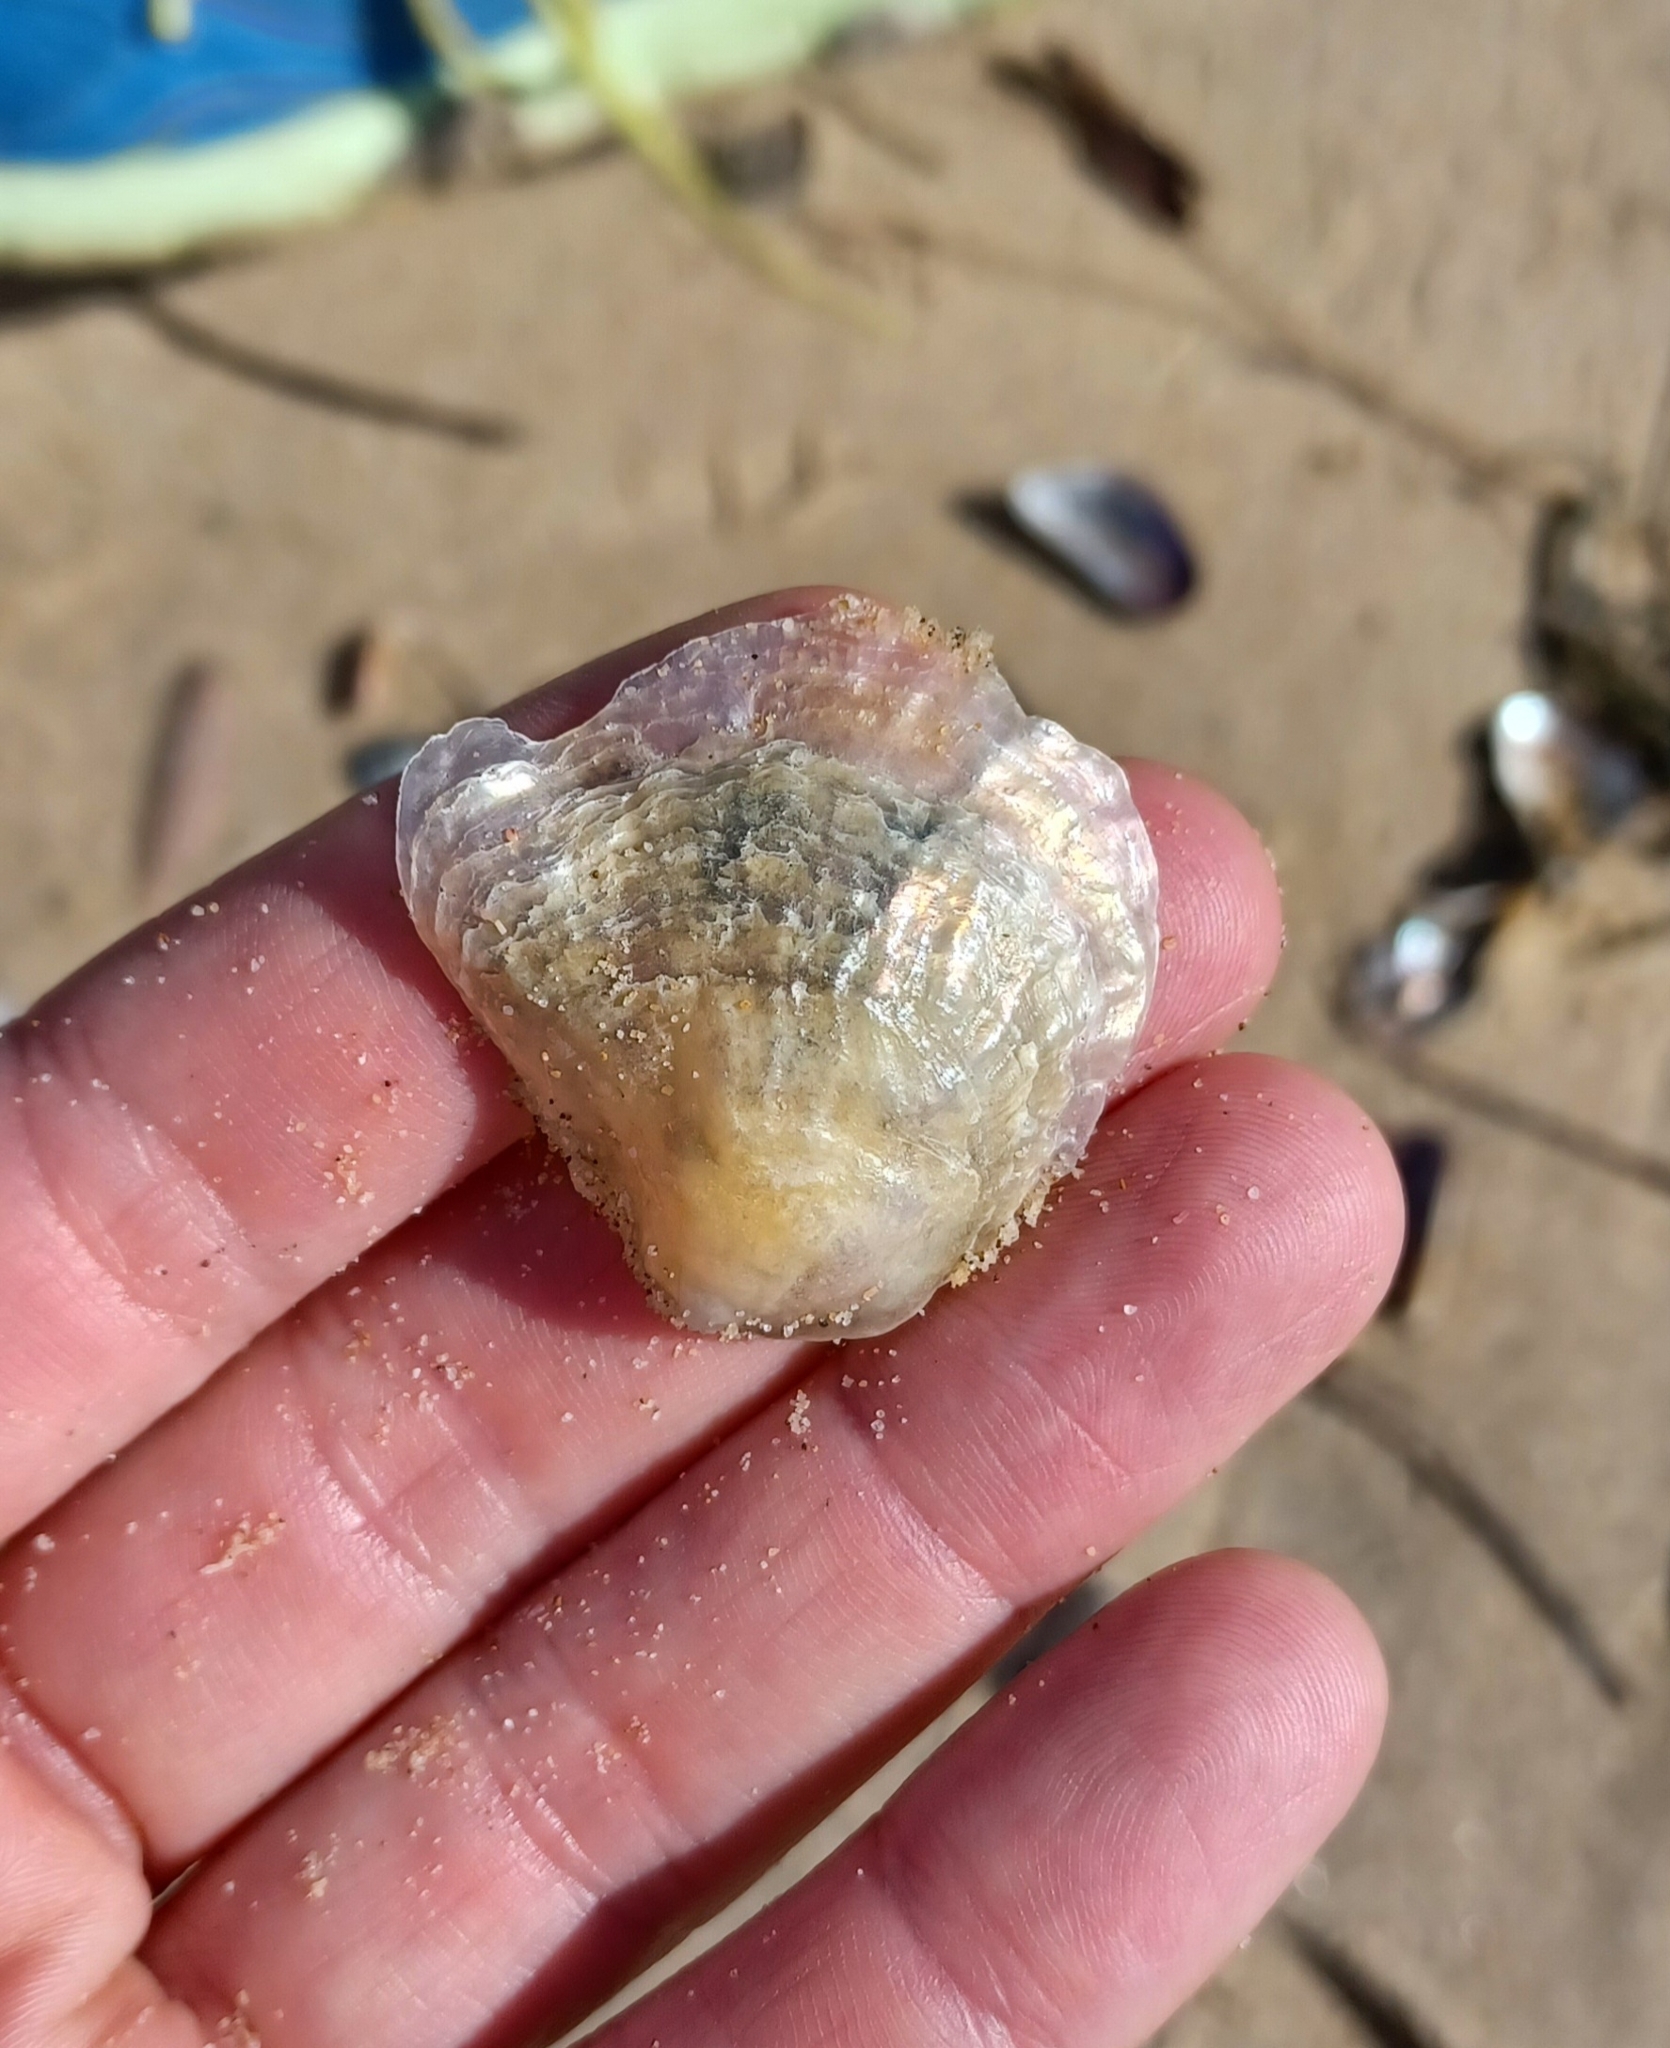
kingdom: Animalia
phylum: Mollusca
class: Bivalvia
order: Pectinida
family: Anomiidae
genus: Anomia
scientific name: Anomia trigonopsis
